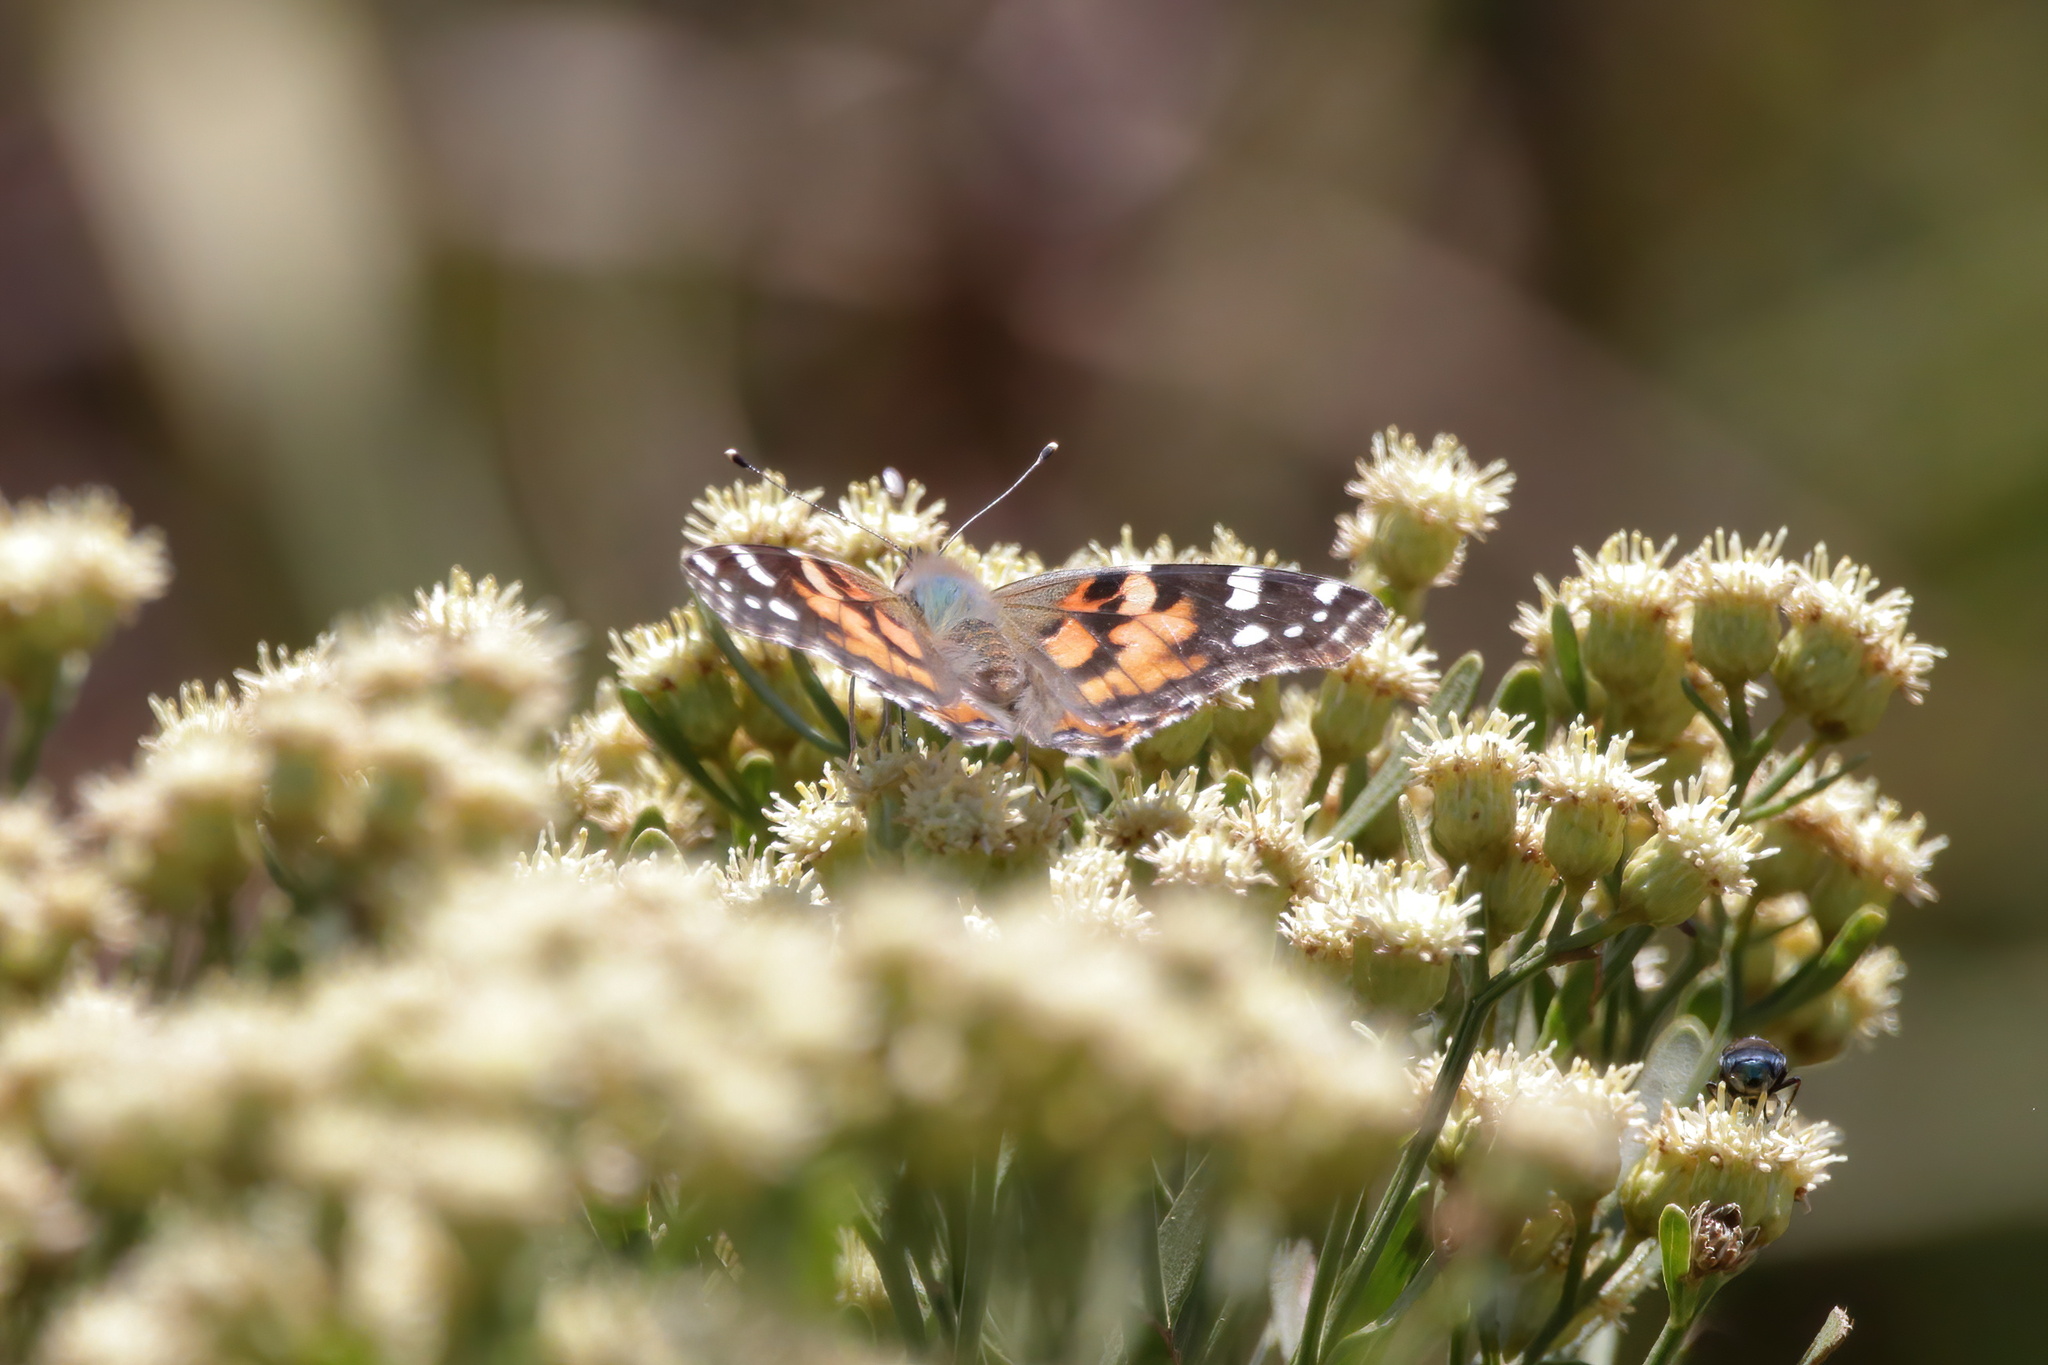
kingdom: Animalia
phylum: Arthropoda
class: Insecta
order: Lepidoptera
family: Nymphalidae
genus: Vanessa
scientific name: Vanessa cardui
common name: Painted lady
